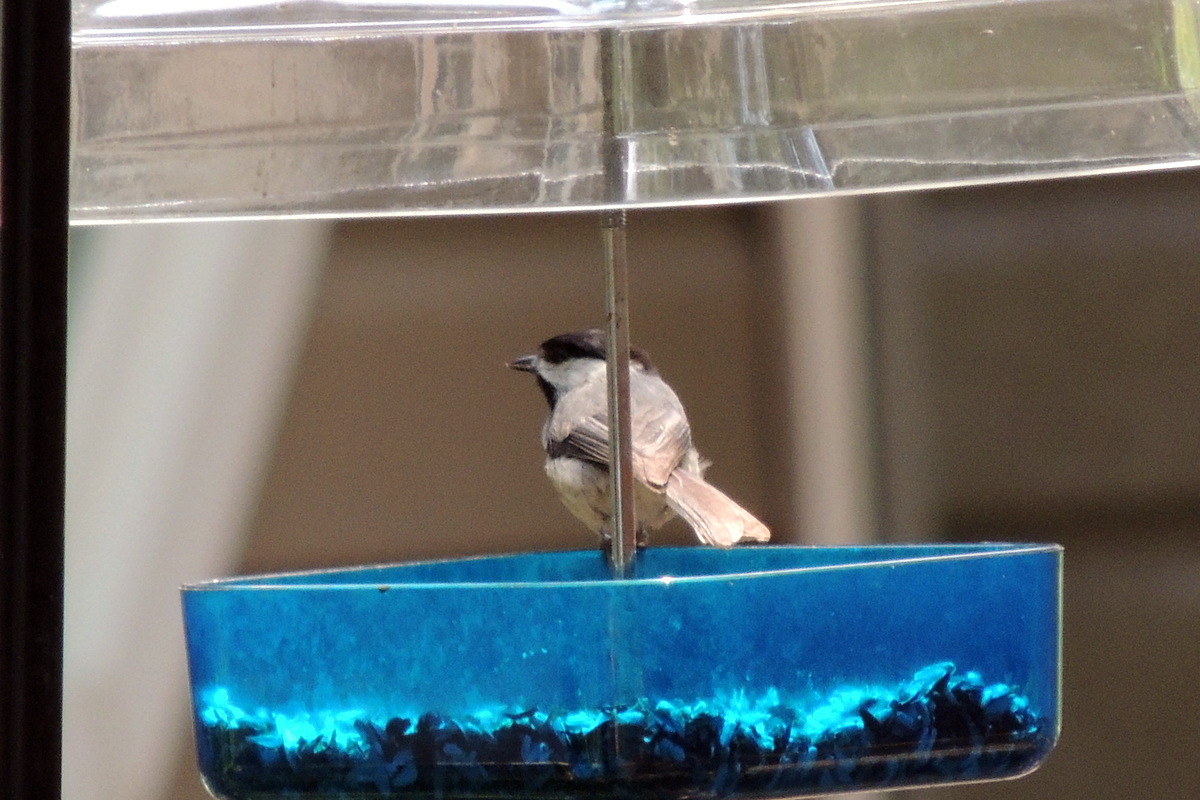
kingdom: Animalia
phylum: Chordata
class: Aves
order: Passeriformes
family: Paridae
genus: Poecile
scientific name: Poecile carolinensis
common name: Carolina chickadee
